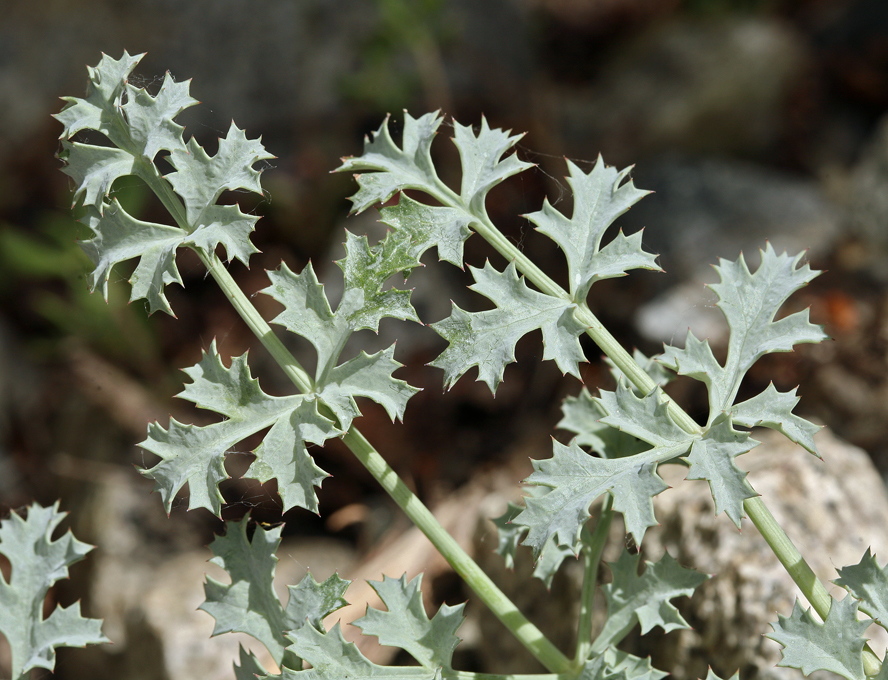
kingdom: Plantae
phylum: Tracheophyta
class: Magnoliopsida
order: Apiales
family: Apiaceae
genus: Lomatium
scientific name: Lomatium rigidum
